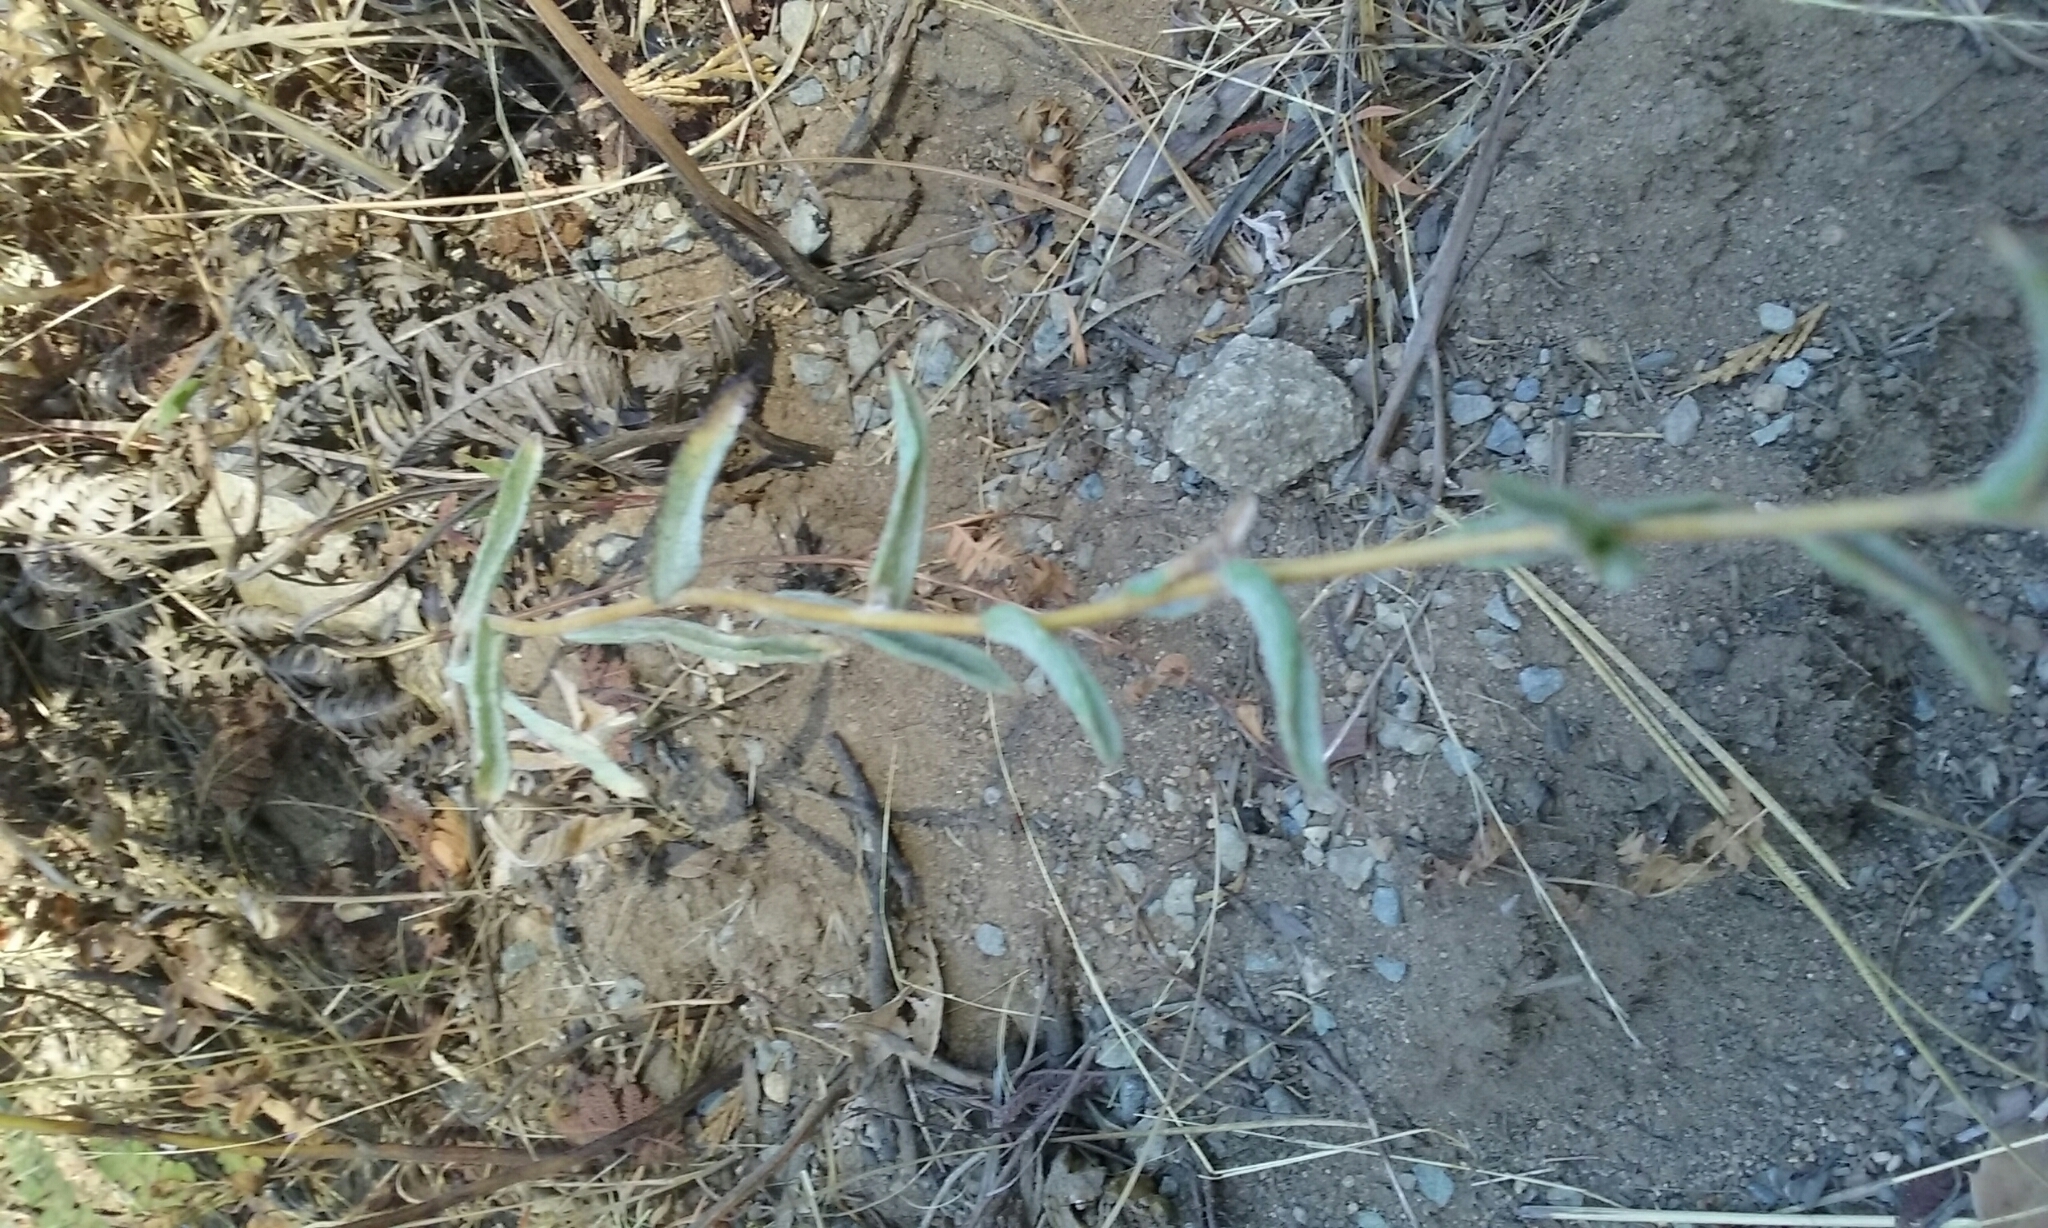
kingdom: Plantae
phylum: Tracheophyta
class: Magnoliopsida
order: Asterales
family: Asteraceae
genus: Lessingia
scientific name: Lessingia leptoclada
